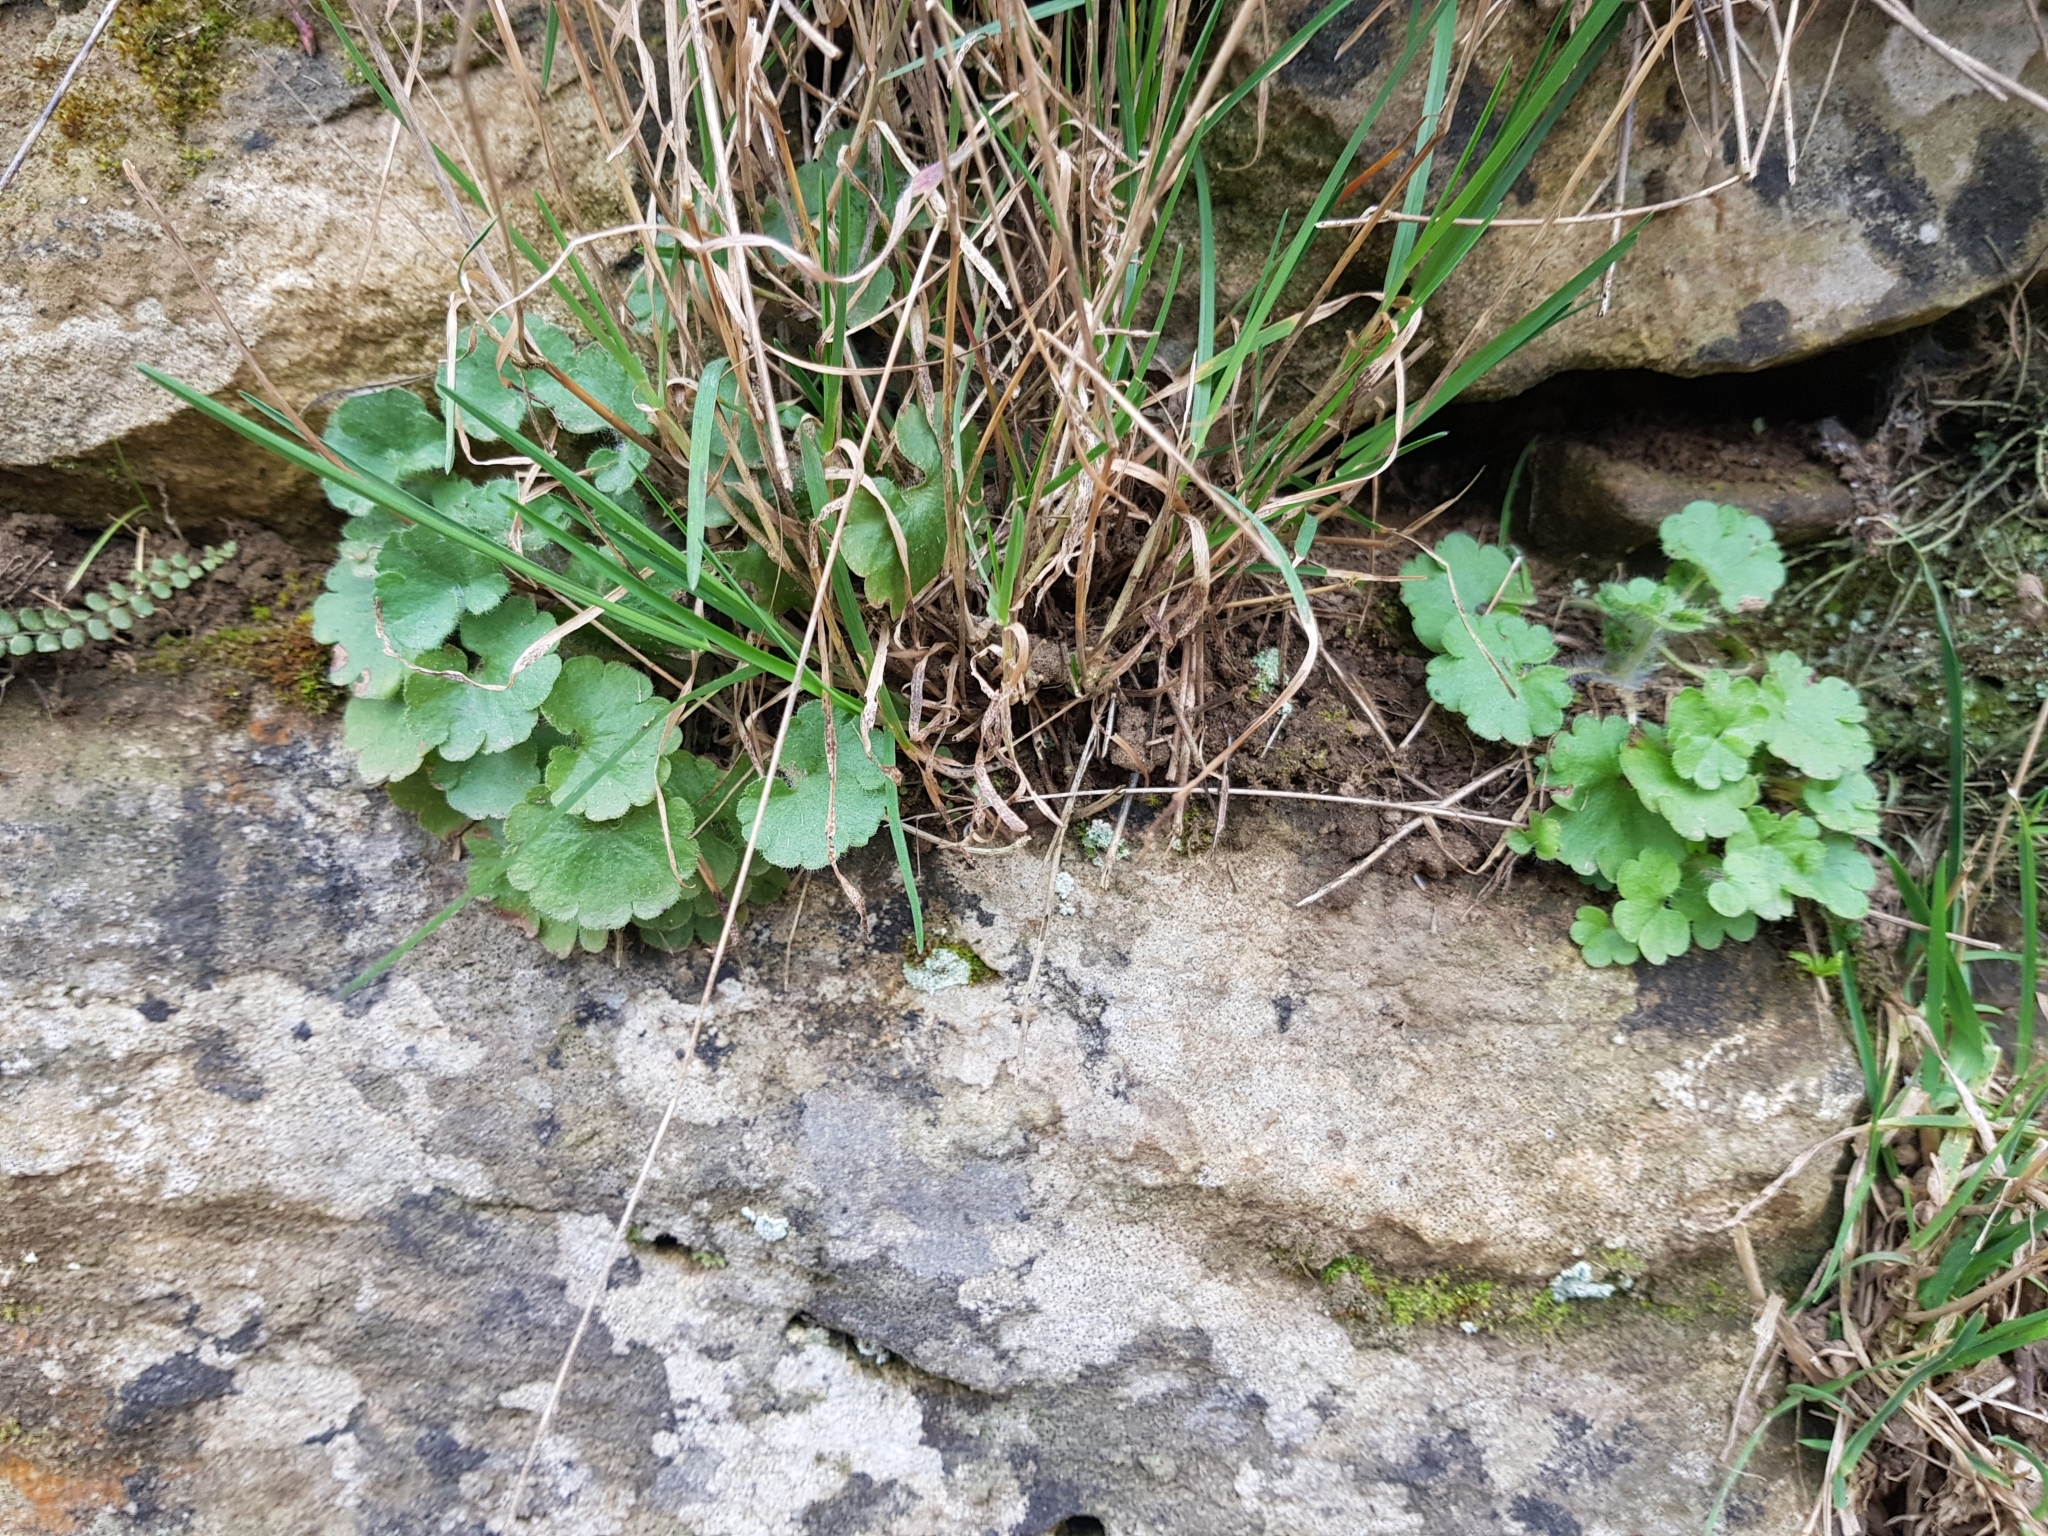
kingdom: Plantae
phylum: Tracheophyta
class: Magnoliopsida
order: Saxifragales
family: Saxifragaceae
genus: Saxifraga
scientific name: Saxifraga granulata
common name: Meadow saxifrage
